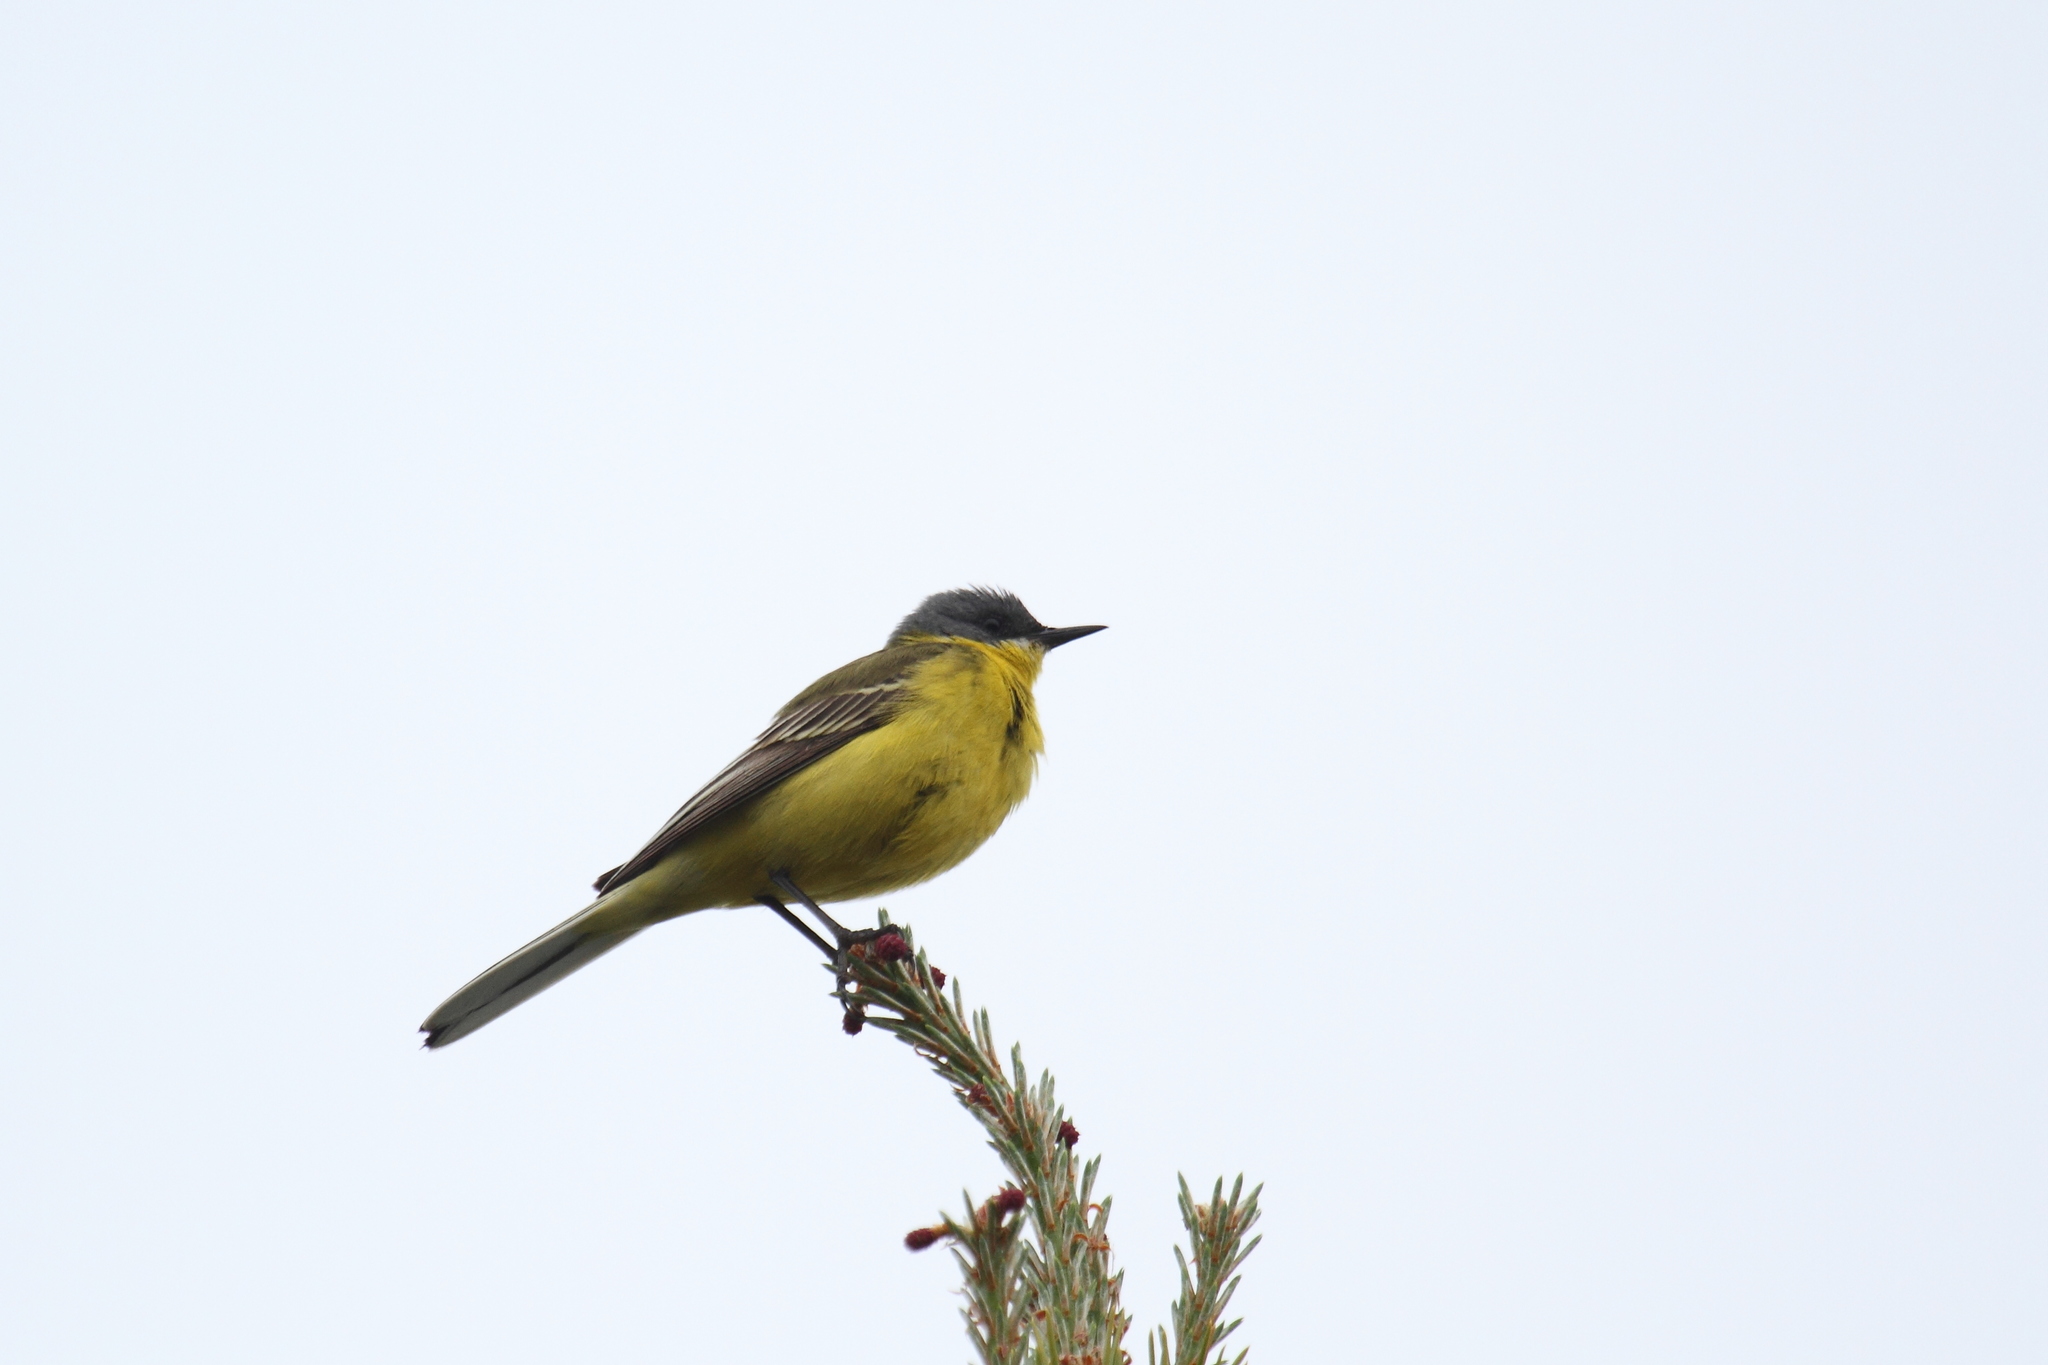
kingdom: Animalia
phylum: Chordata
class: Aves
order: Passeriformes
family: Motacillidae
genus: Motacilla
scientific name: Motacilla flava
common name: Western yellow wagtail
